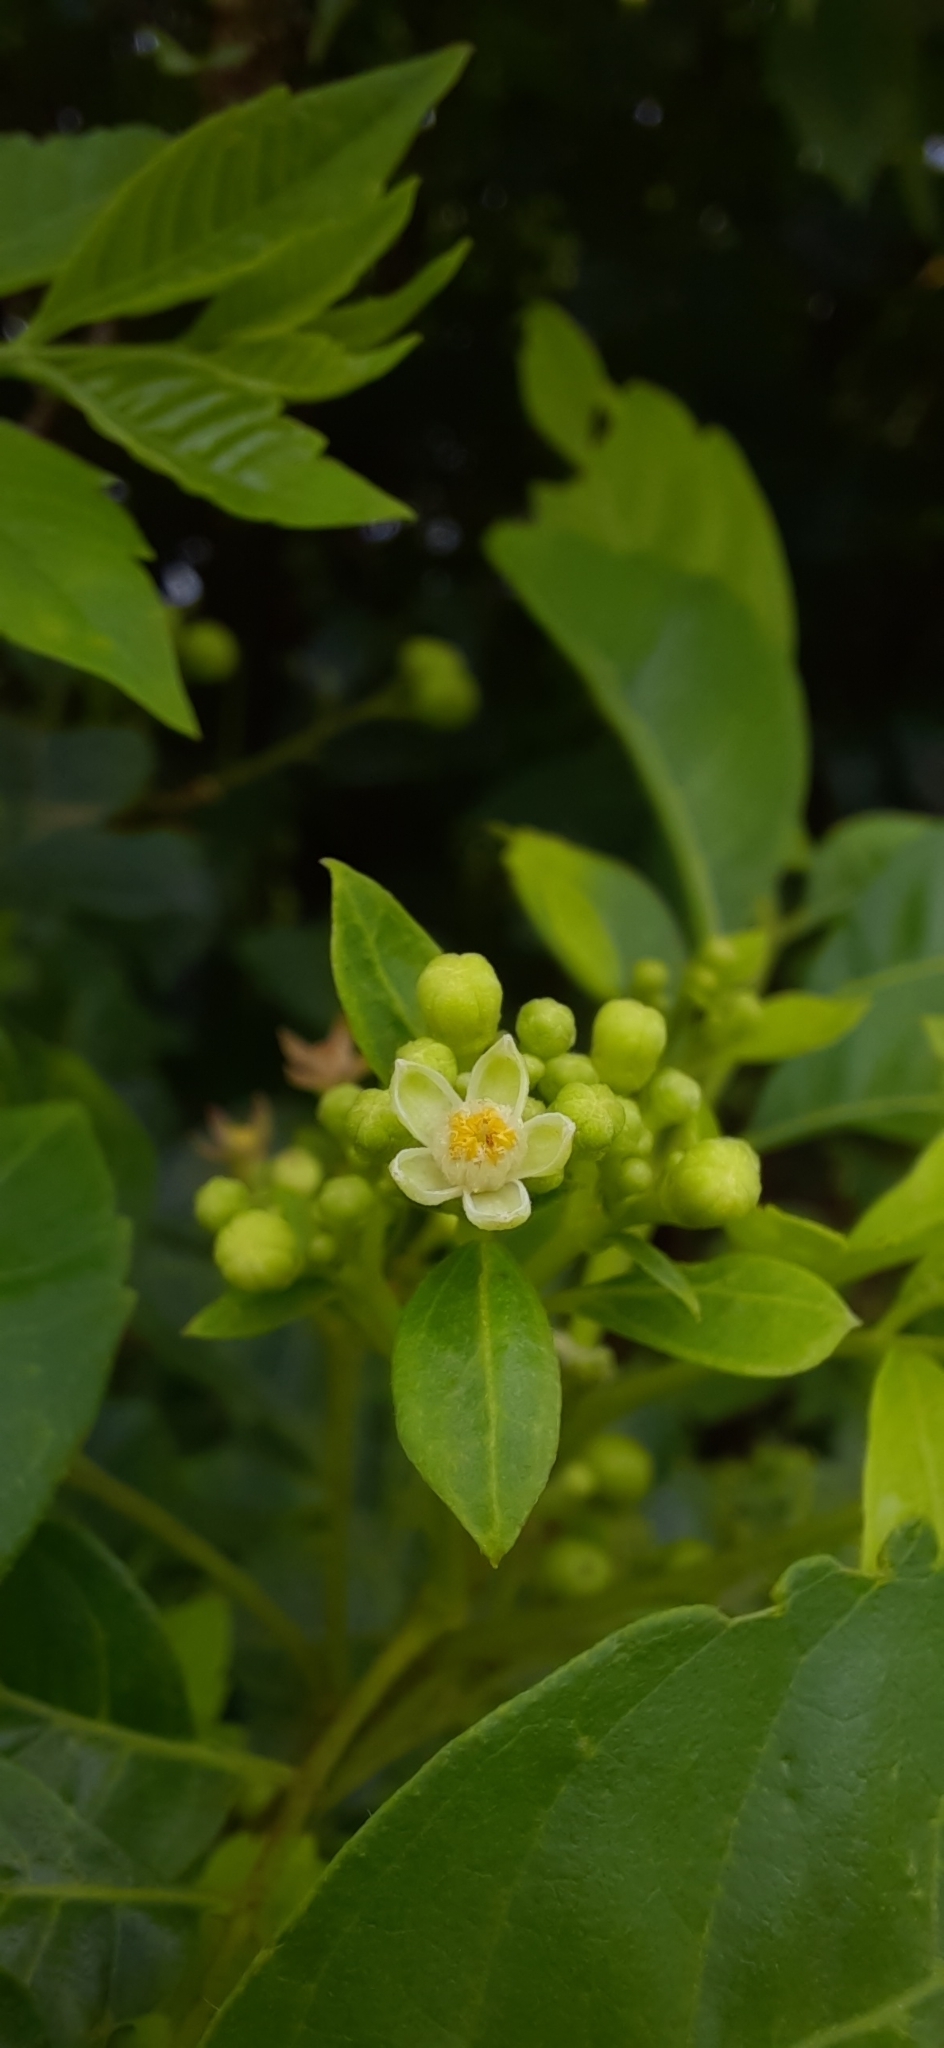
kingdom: Plantae
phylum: Tracheophyta
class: Magnoliopsida
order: Sapindales
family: Meliaceae
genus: Cipadessa
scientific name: Cipadessa baccifera
